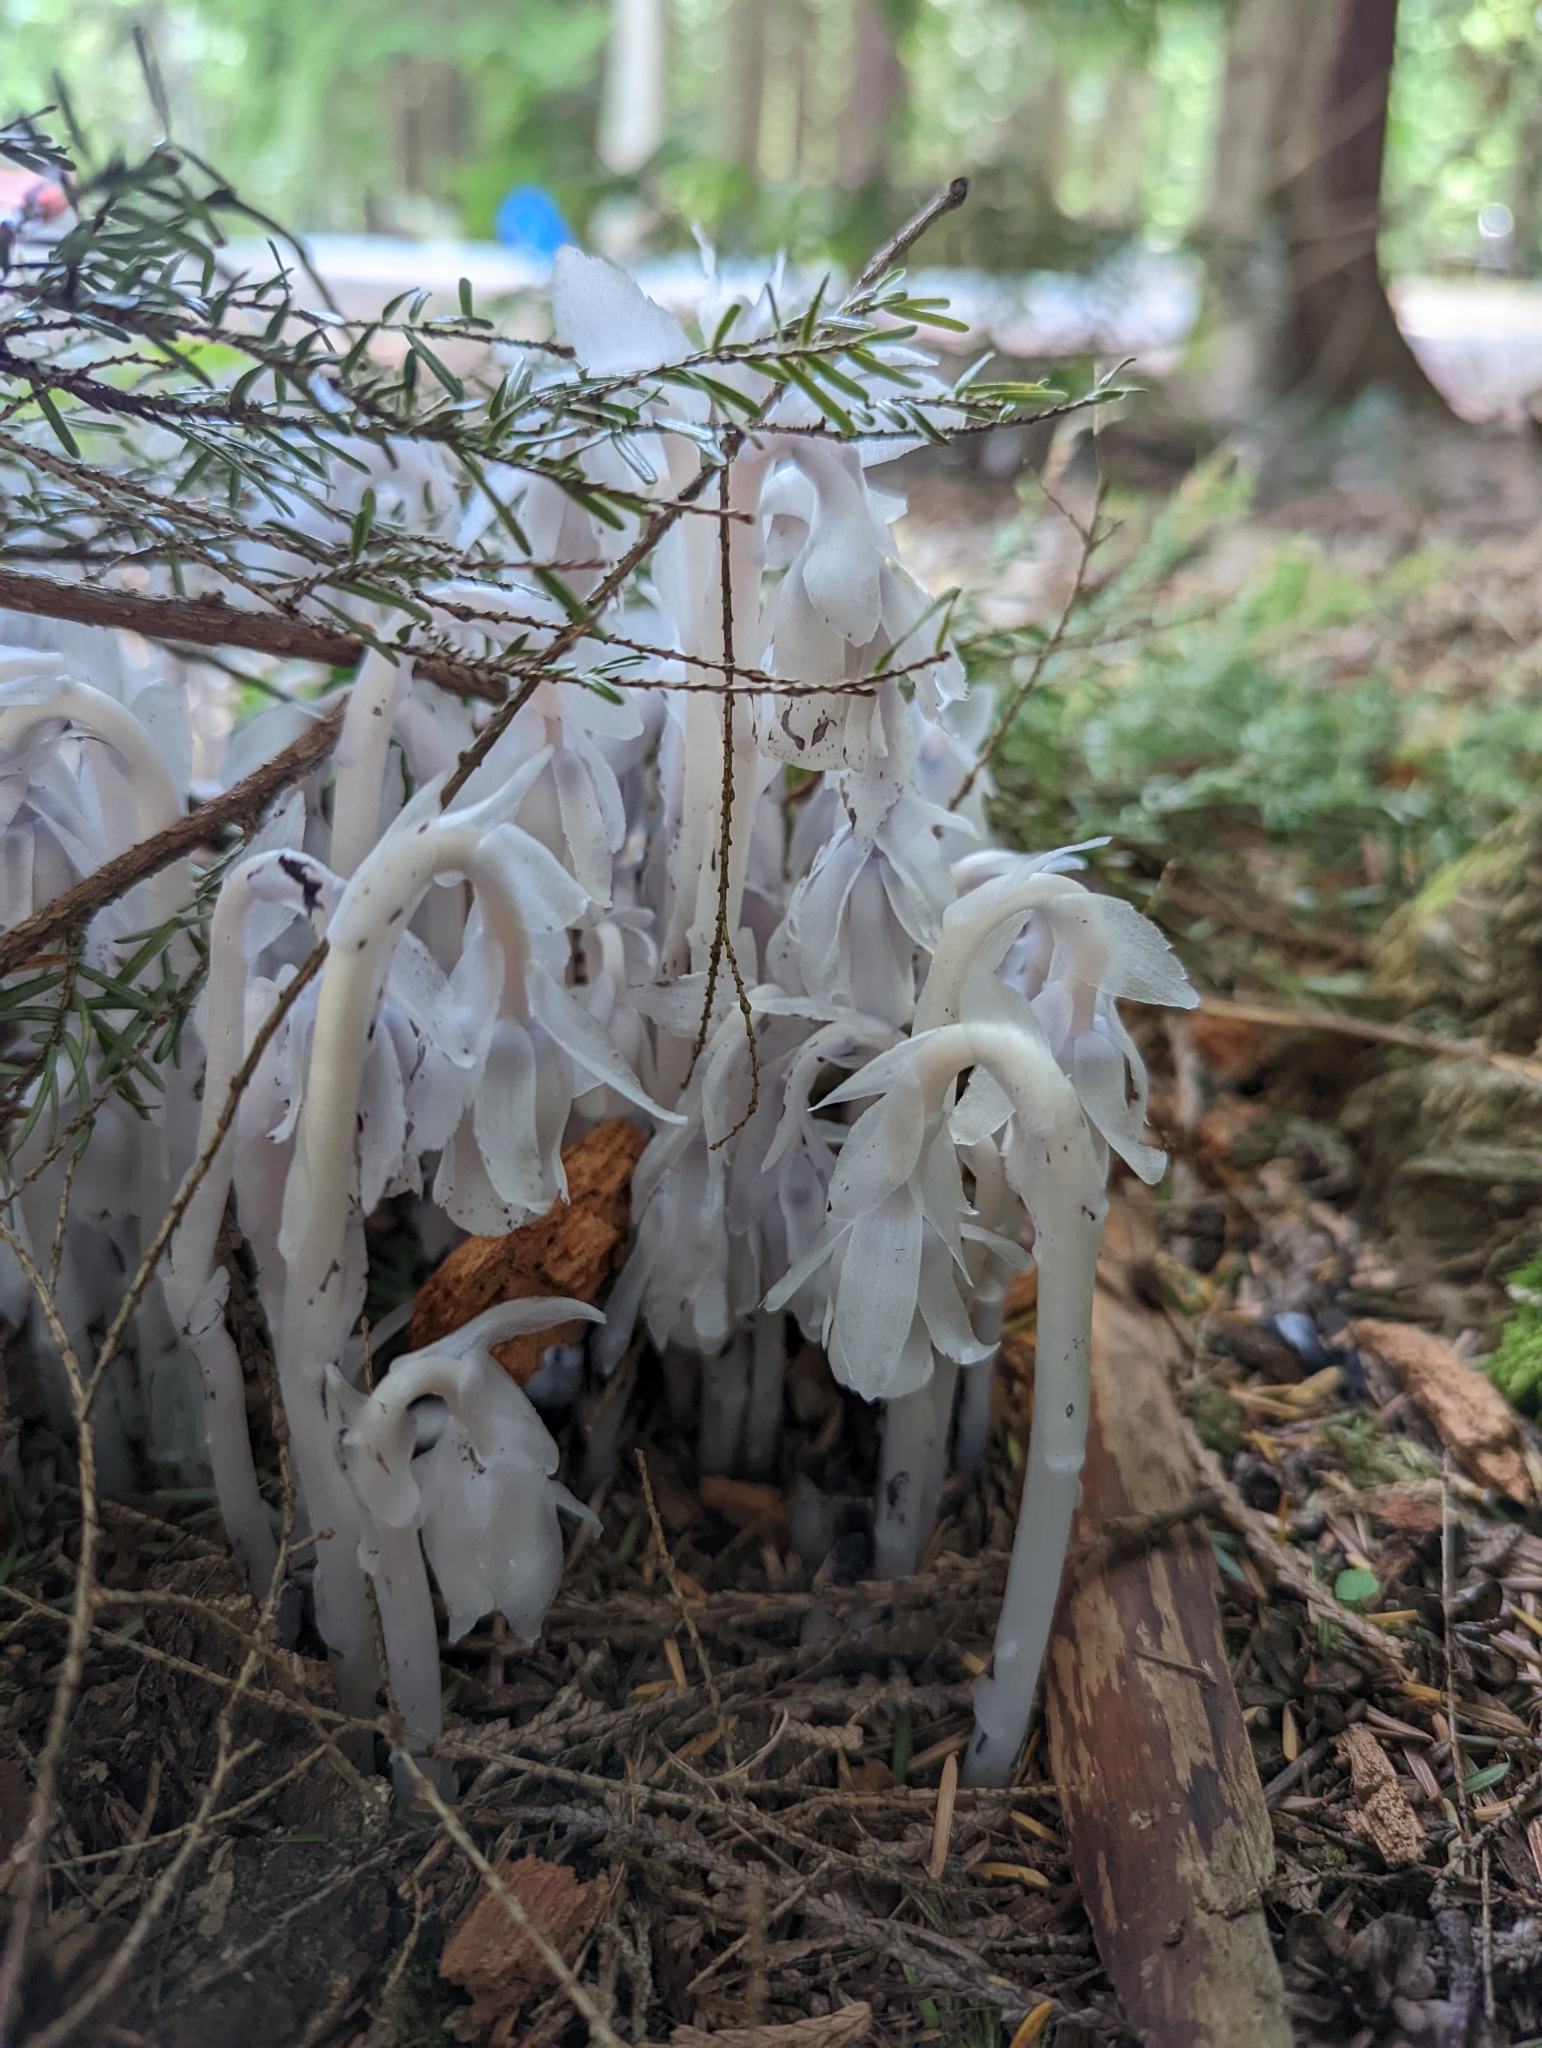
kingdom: Plantae
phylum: Tracheophyta
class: Magnoliopsida
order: Ericales
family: Ericaceae
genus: Monotropa
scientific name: Monotropa uniflora
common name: Convulsion root
